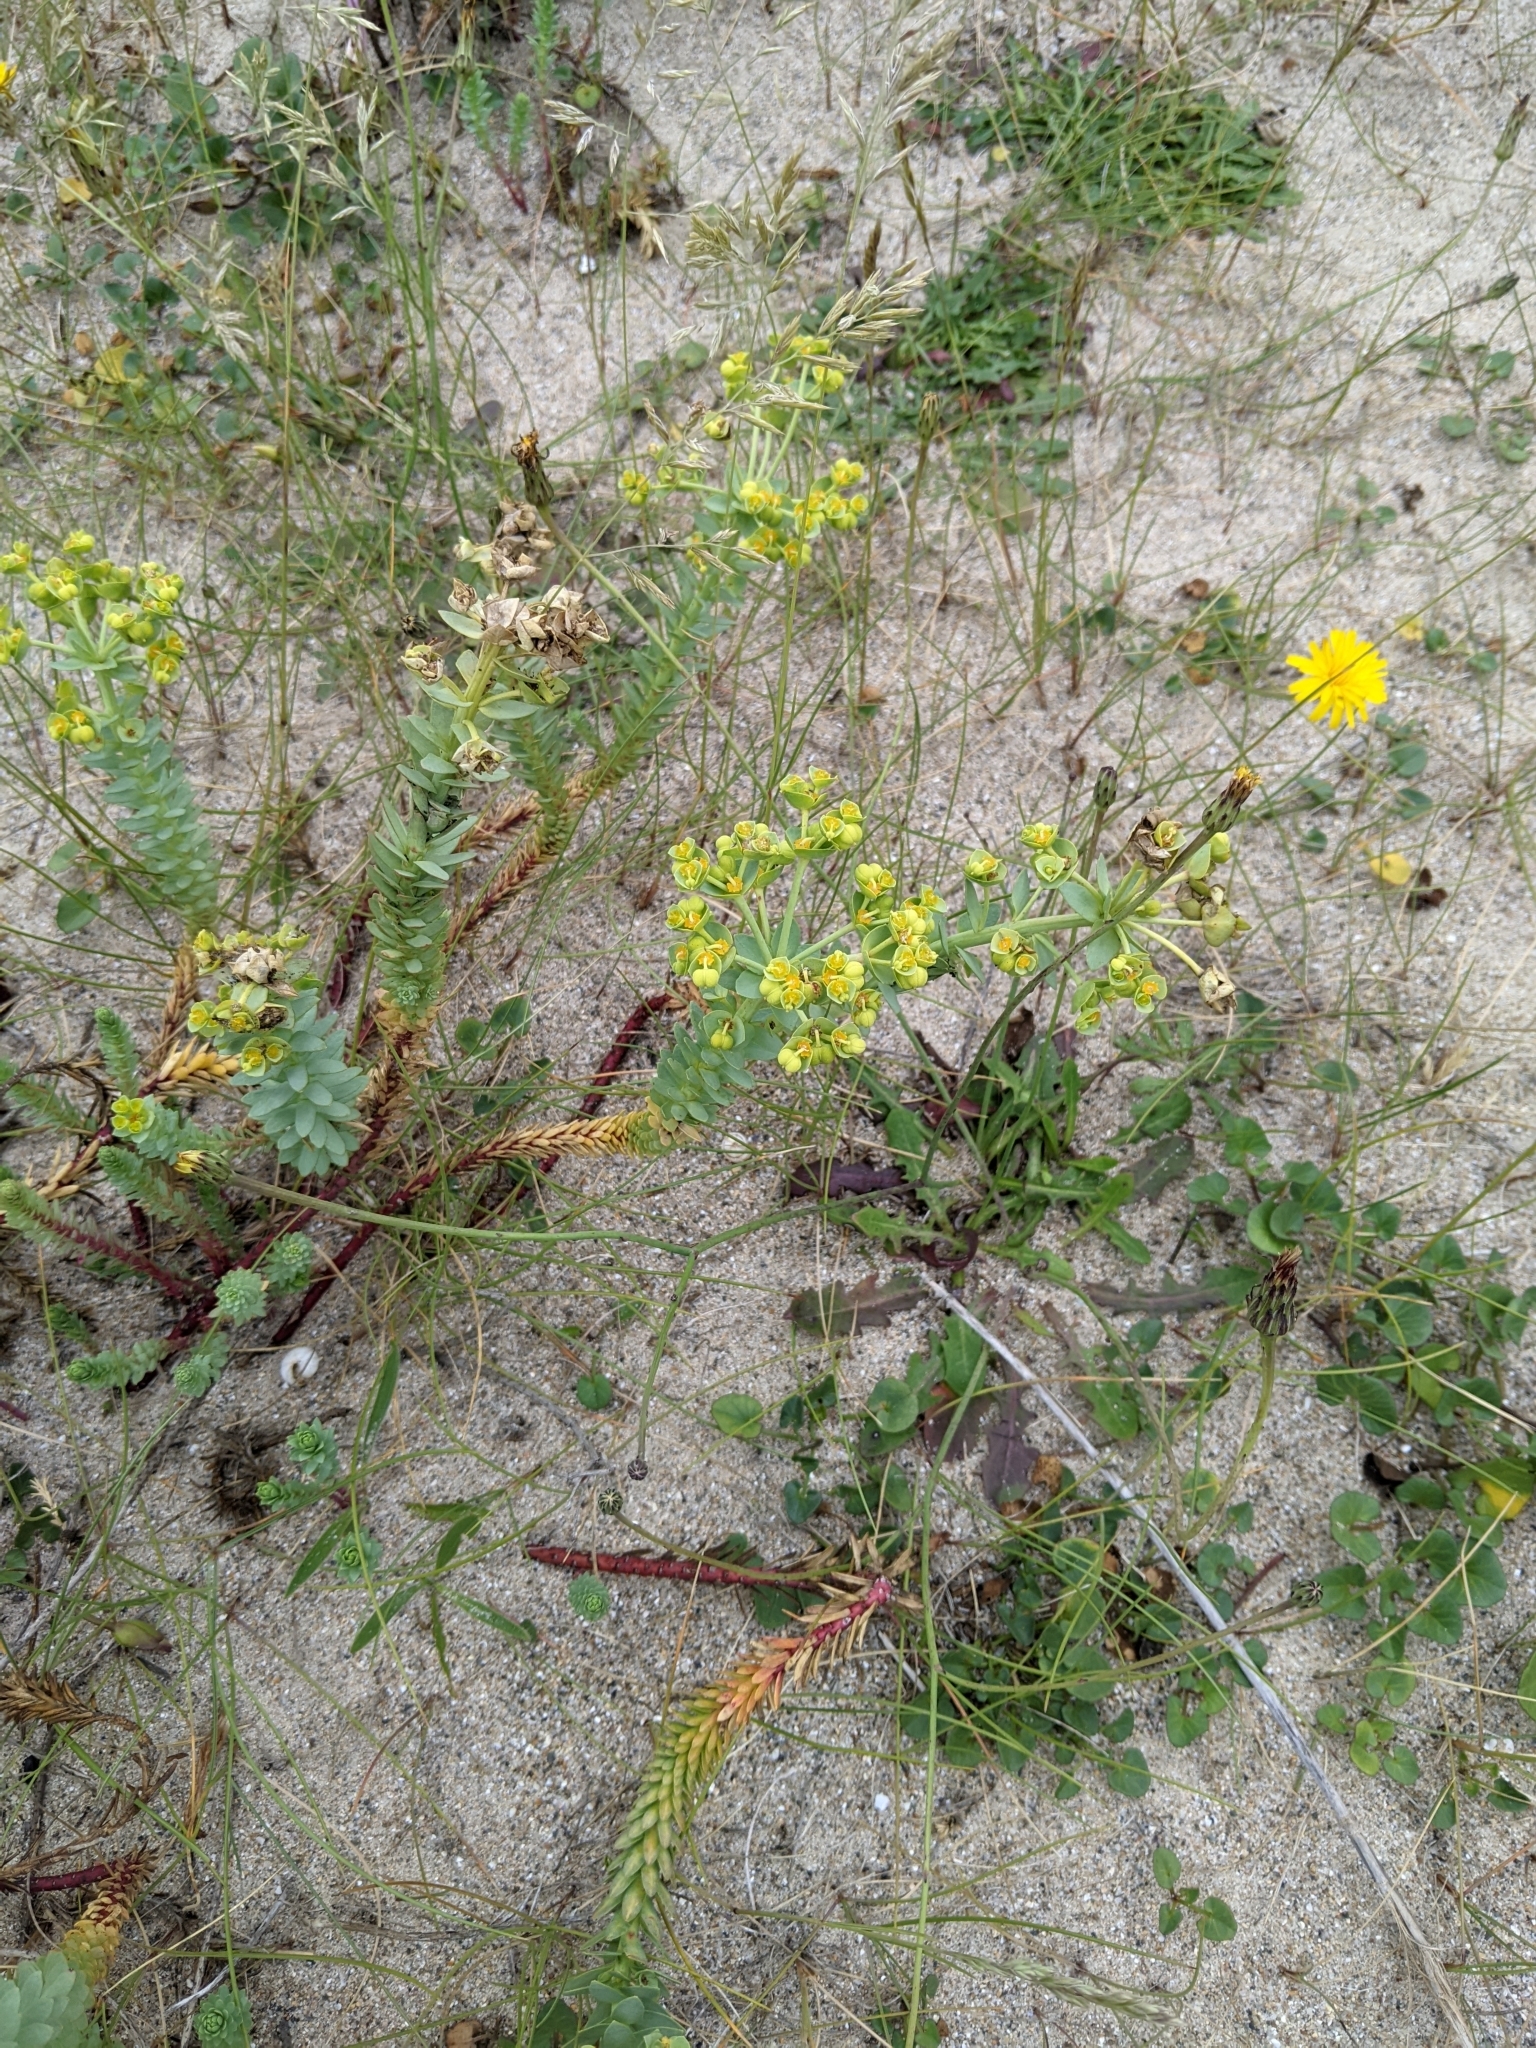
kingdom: Plantae
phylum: Tracheophyta
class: Magnoliopsida
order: Malpighiales
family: Euphorbiaceae
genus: Euphorbia
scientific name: Euphorbia paralias
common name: Sea spurge
